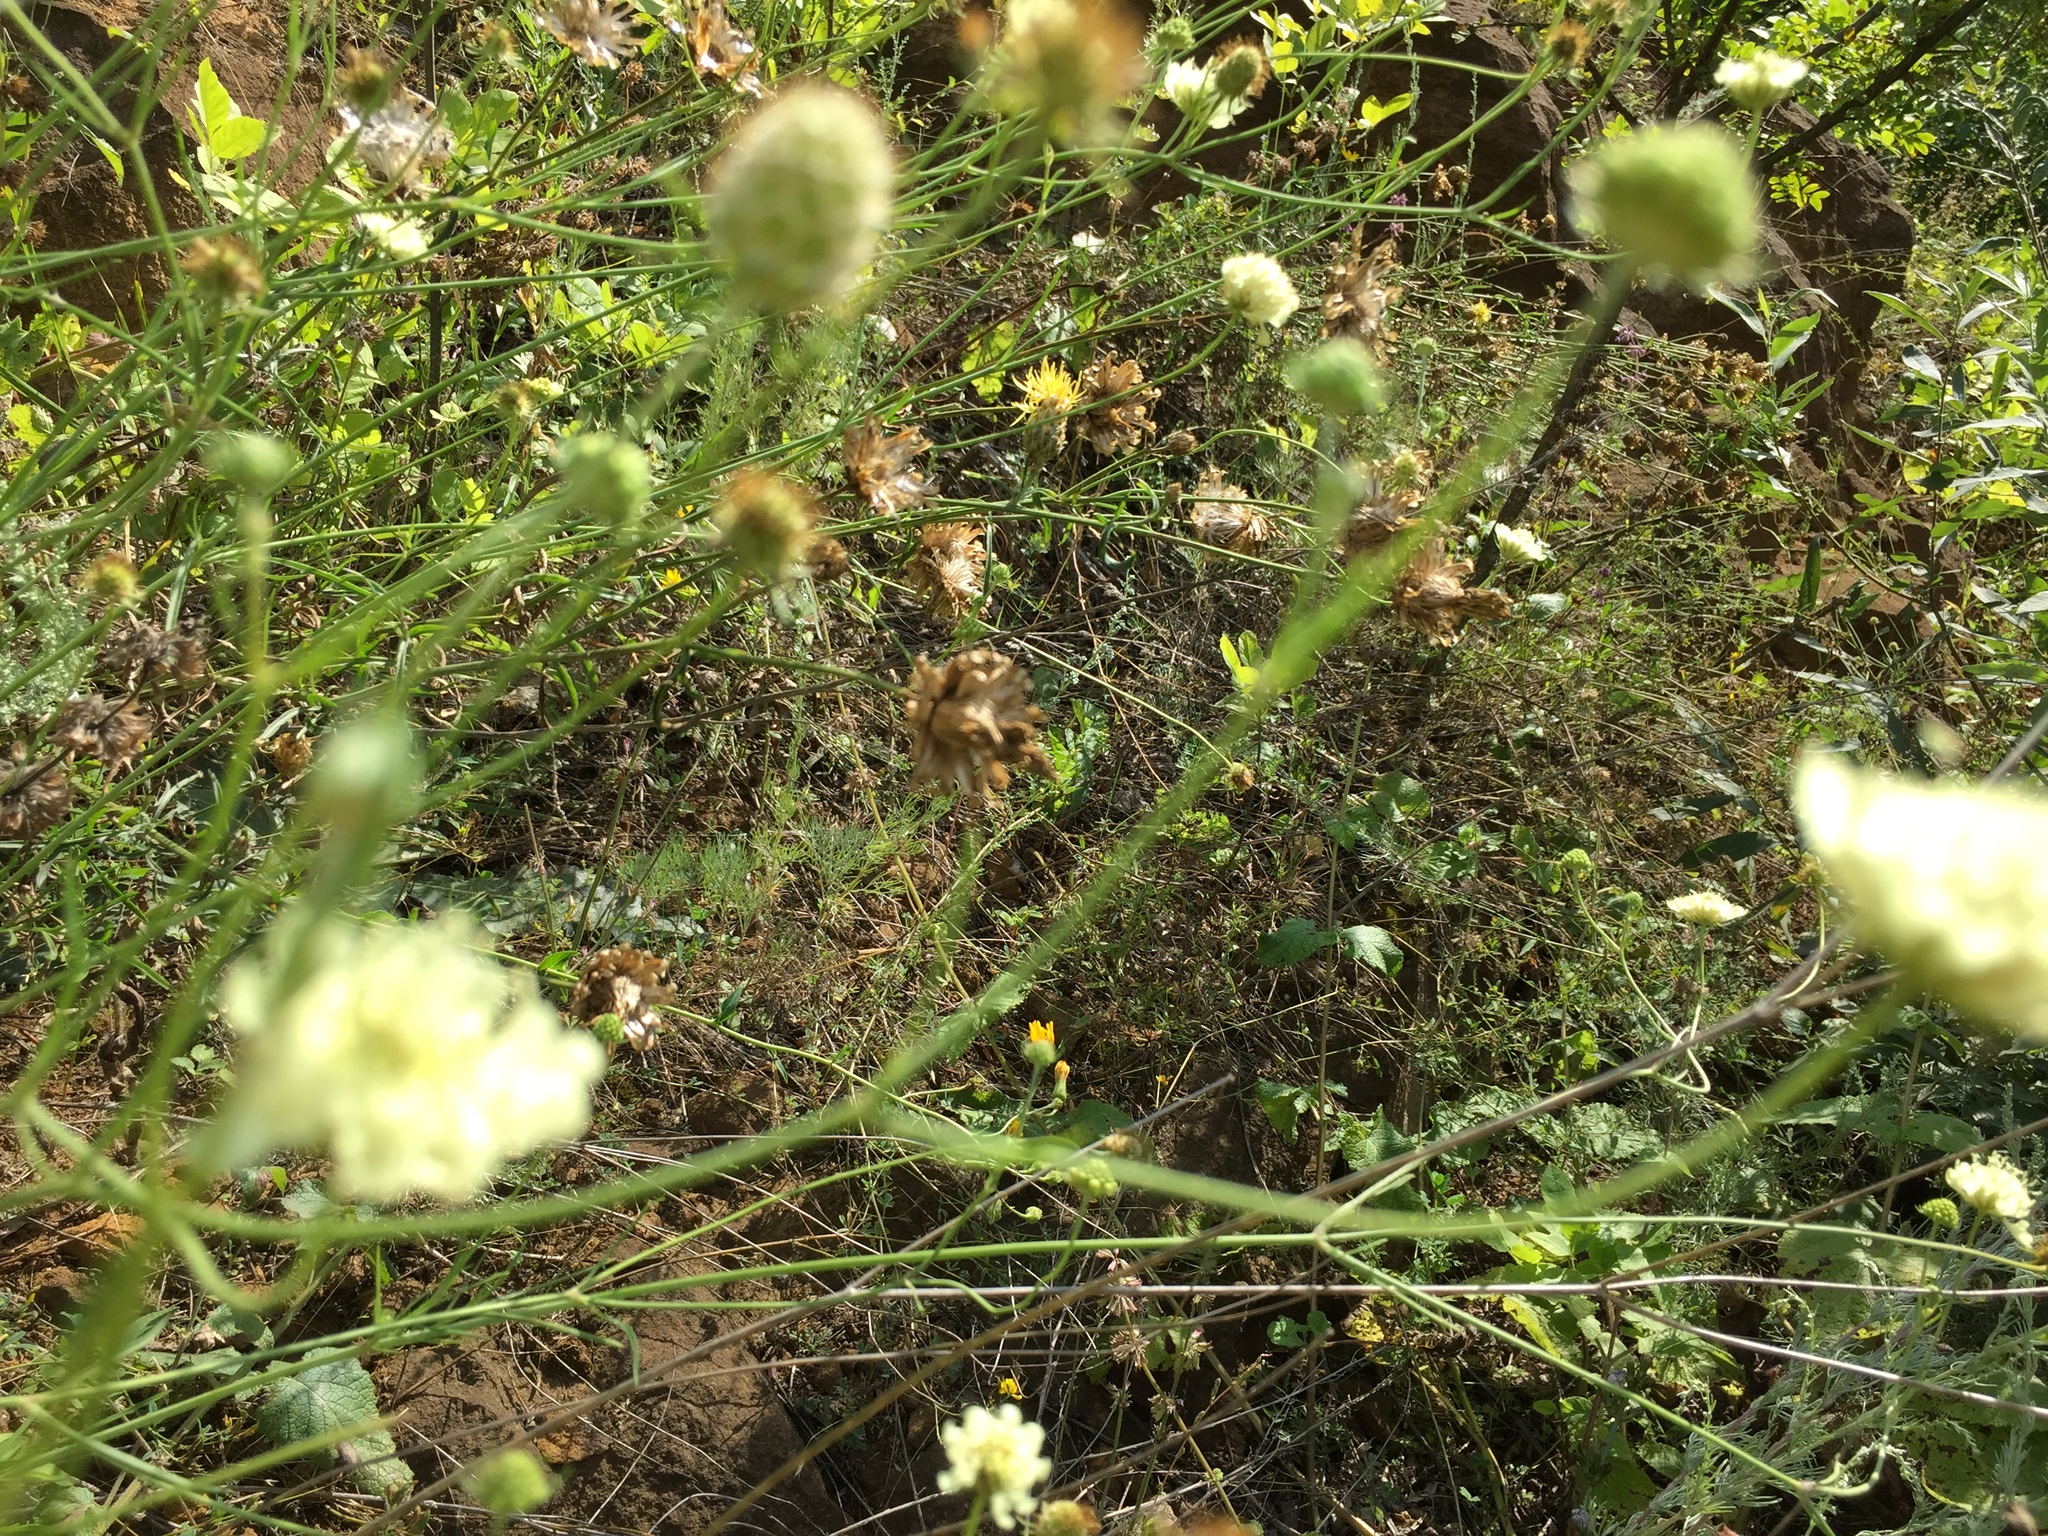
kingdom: Plantae
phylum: Tracheophyta
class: Magnoliopsida
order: Dipsacales
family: Caprifoliaceae
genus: Scabiosa
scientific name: Scabiosa ochroleuca
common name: Cream pincushions
